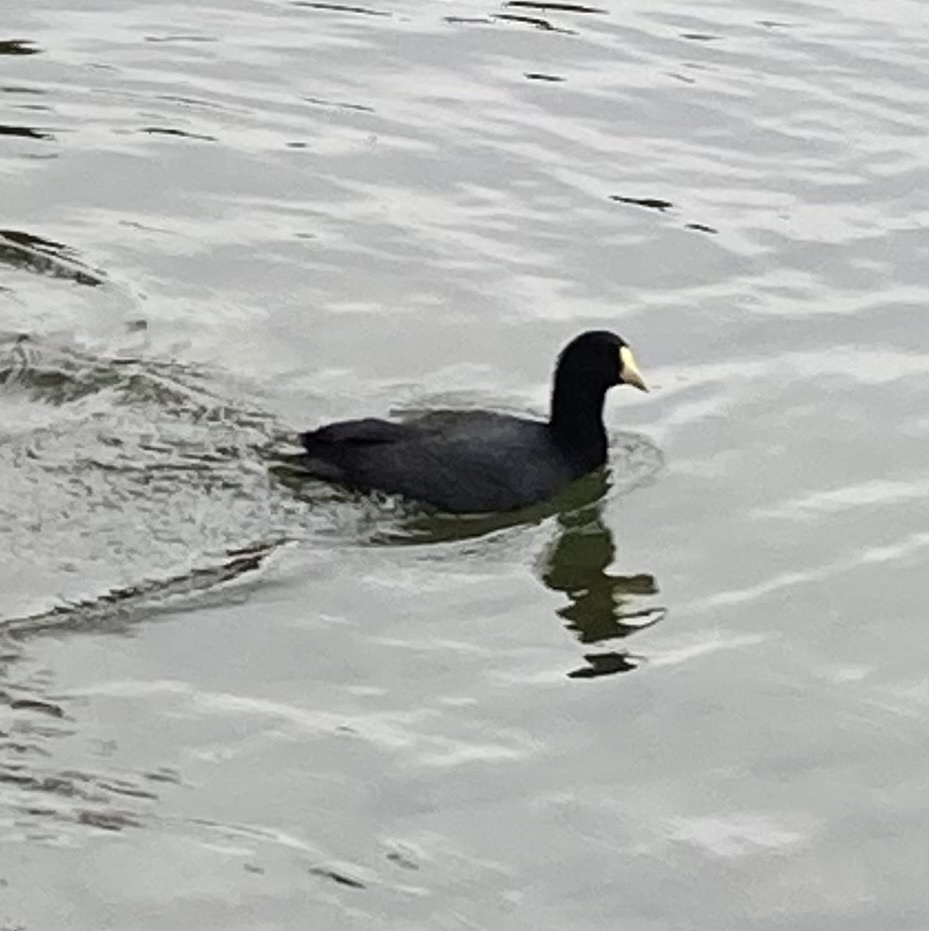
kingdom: Animalia
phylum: Chordata
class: Aves
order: Gruiformes
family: Rallidae
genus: Fulica
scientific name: Fulica leucoptera
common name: White-winged coot
